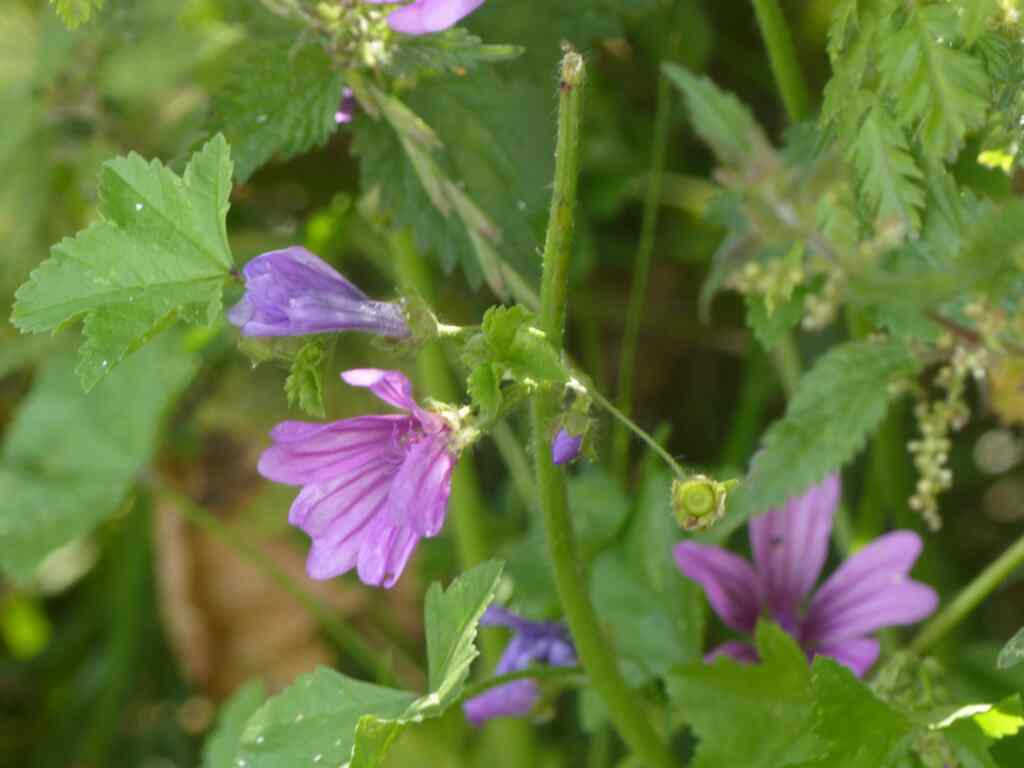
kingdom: Plantae
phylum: Tracheophyta
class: Magnoliopsida
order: Malvales
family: Malvaceae
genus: Malva
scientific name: Malva sylvestris
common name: Common mallow
